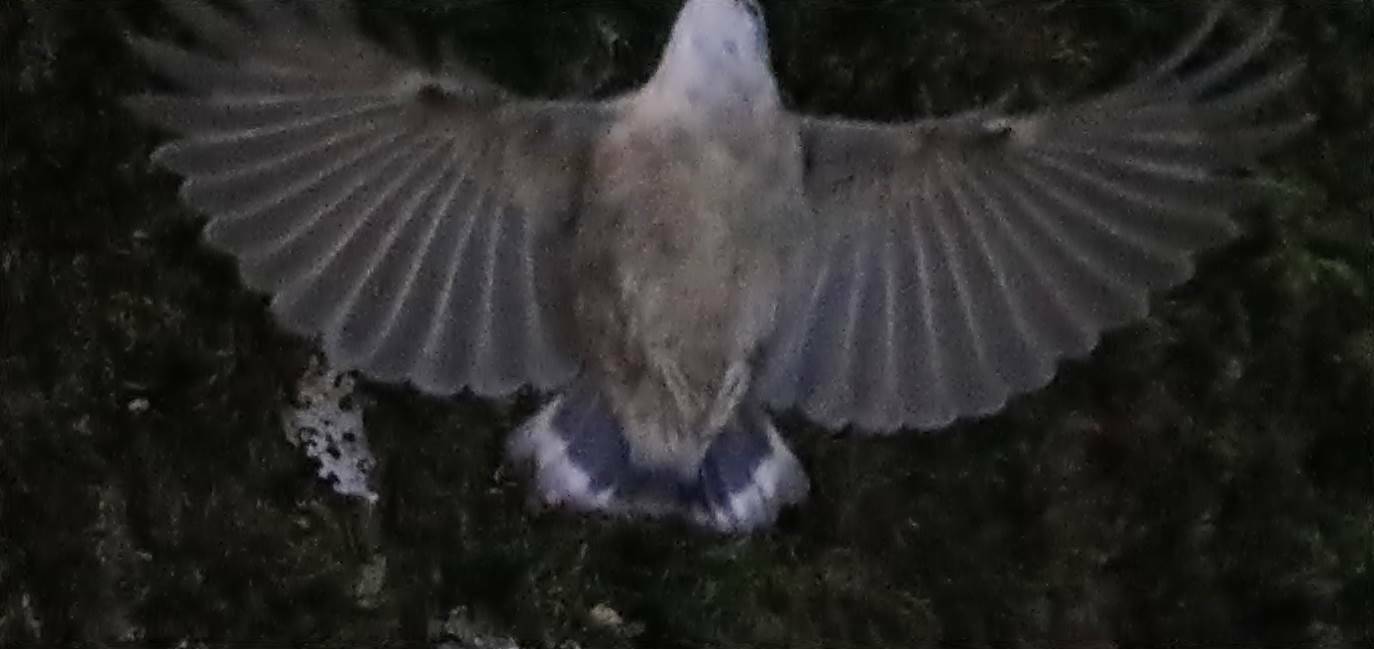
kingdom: Animalia
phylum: Chordata
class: Aves
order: Passeriformes
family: Sittidae
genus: Sitta
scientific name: Sitta ledanti
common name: Algerian nuthatch
